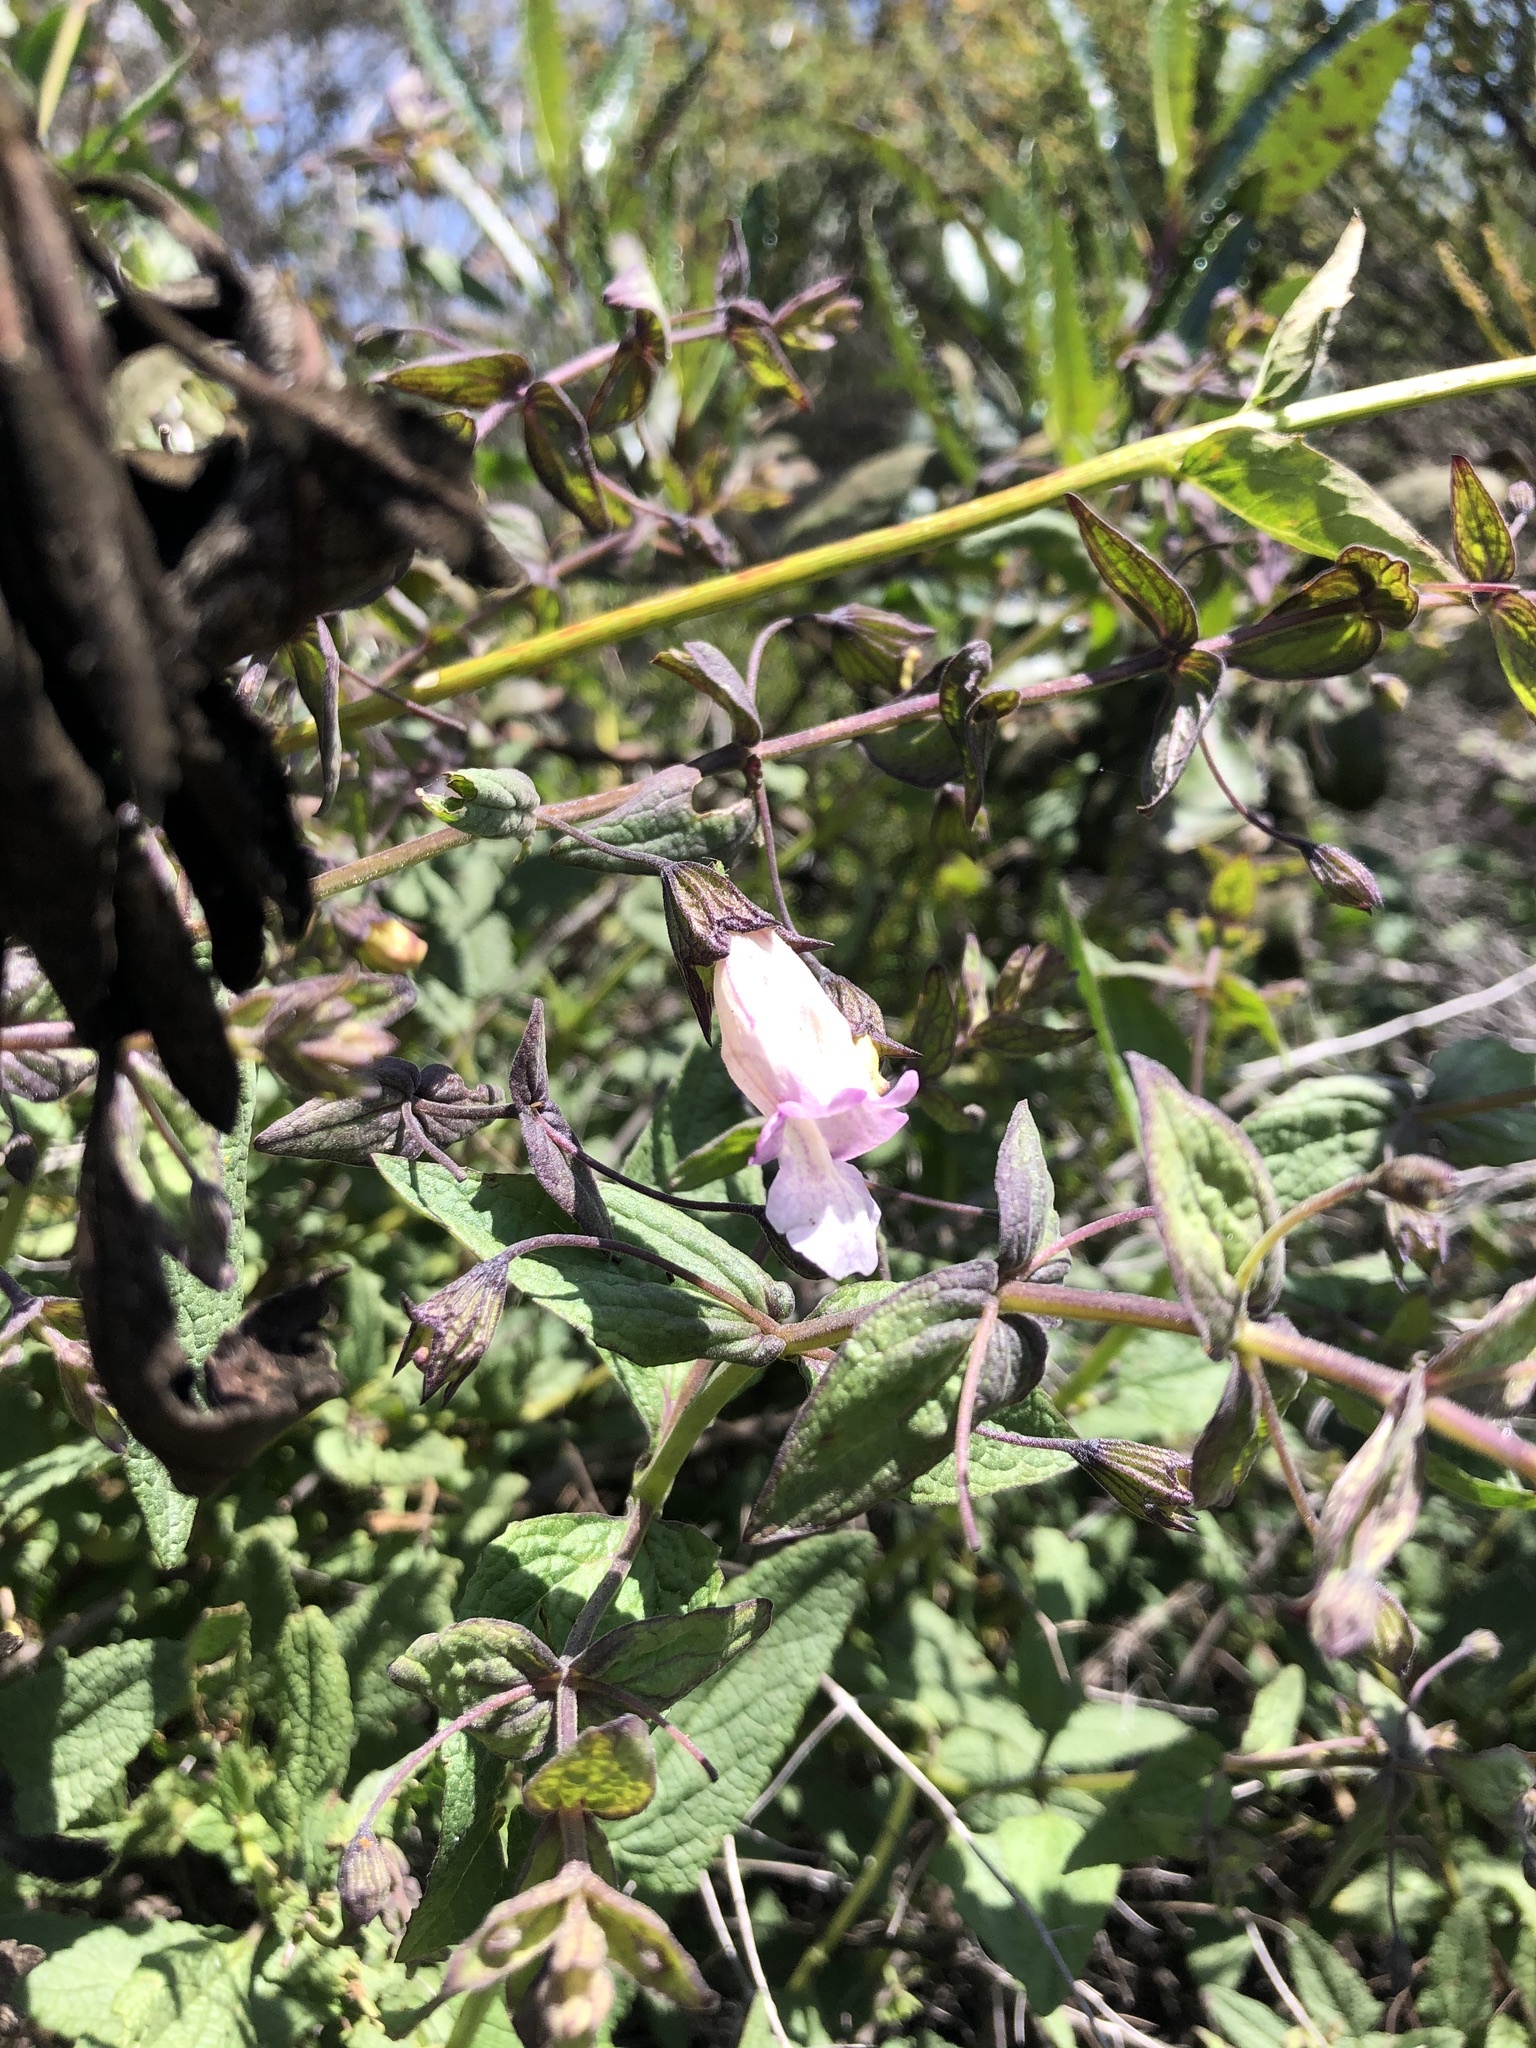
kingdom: Plantae
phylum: Tracheophyta
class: Magnoliopsida
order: Lamiales
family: Lamiaceae
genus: Lepechinia
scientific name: Lepechinia cardiophylla
